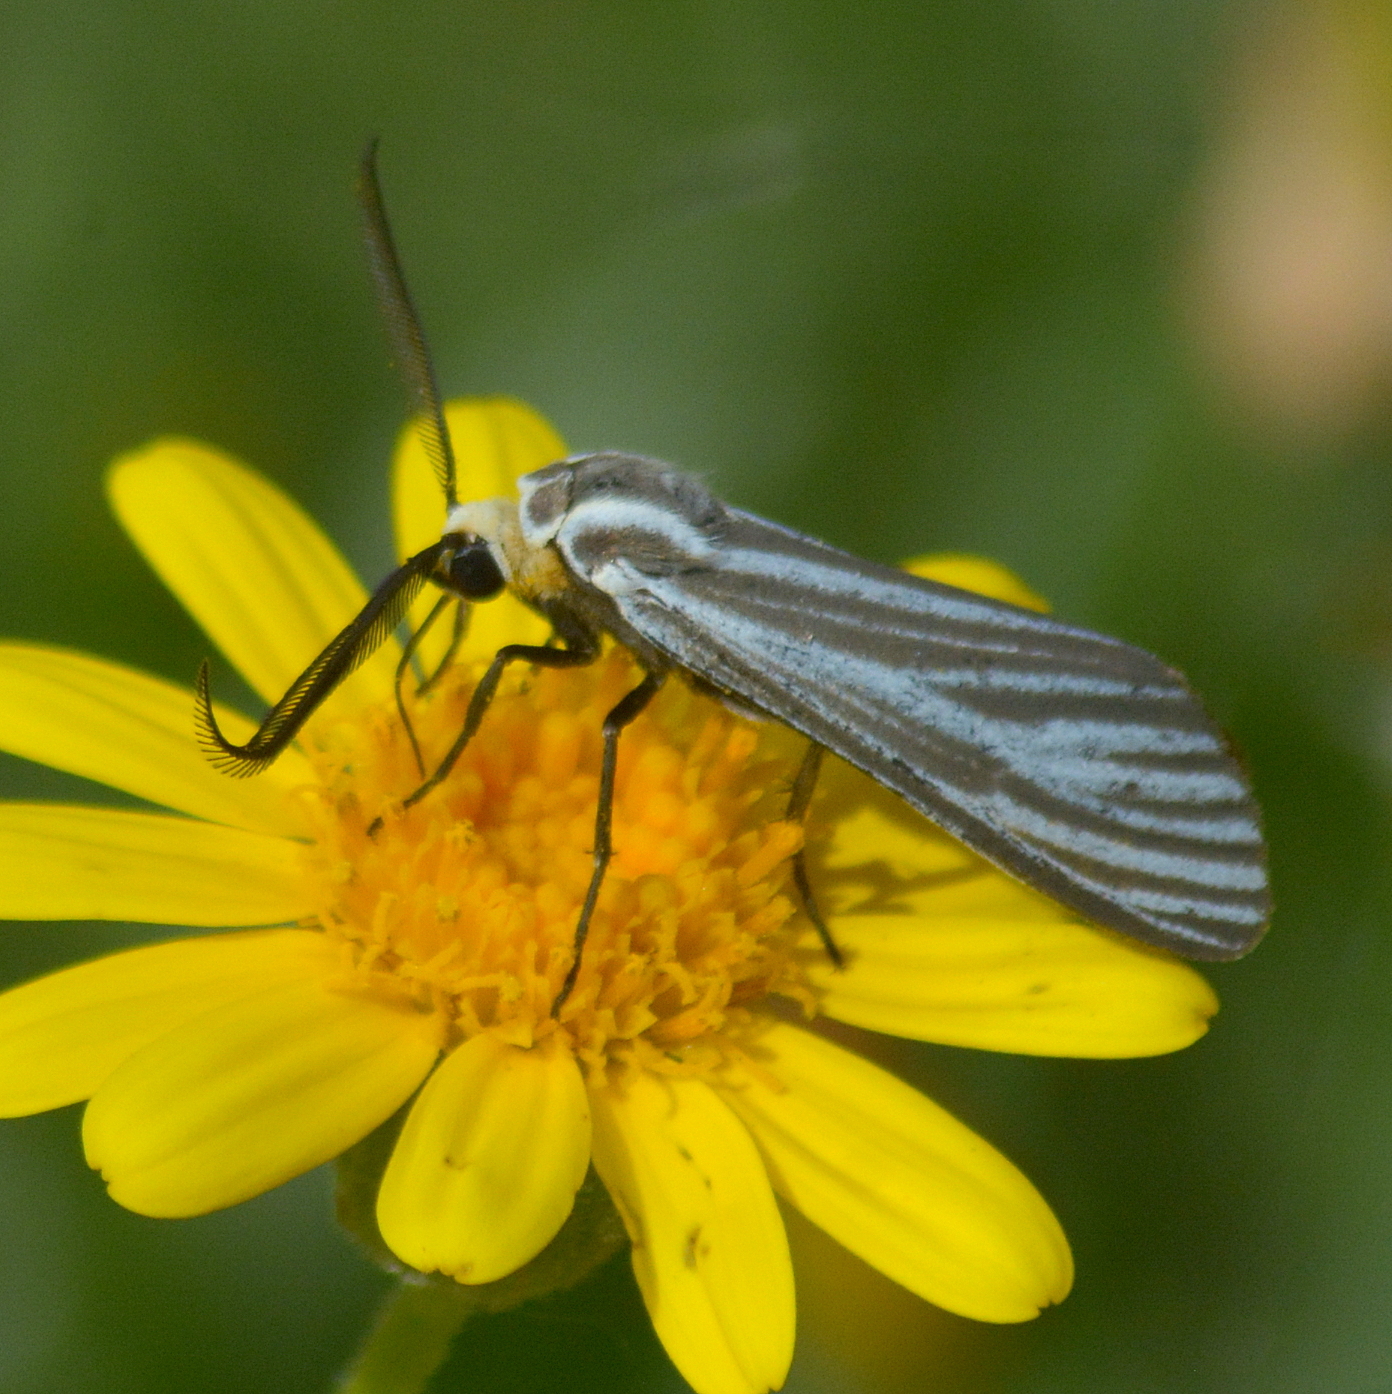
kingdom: Animalia
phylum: Arthropoda
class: Insecta
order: Lepidoptera
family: Erebidae
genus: Ctenucha
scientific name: Ctenucha vittigerum
